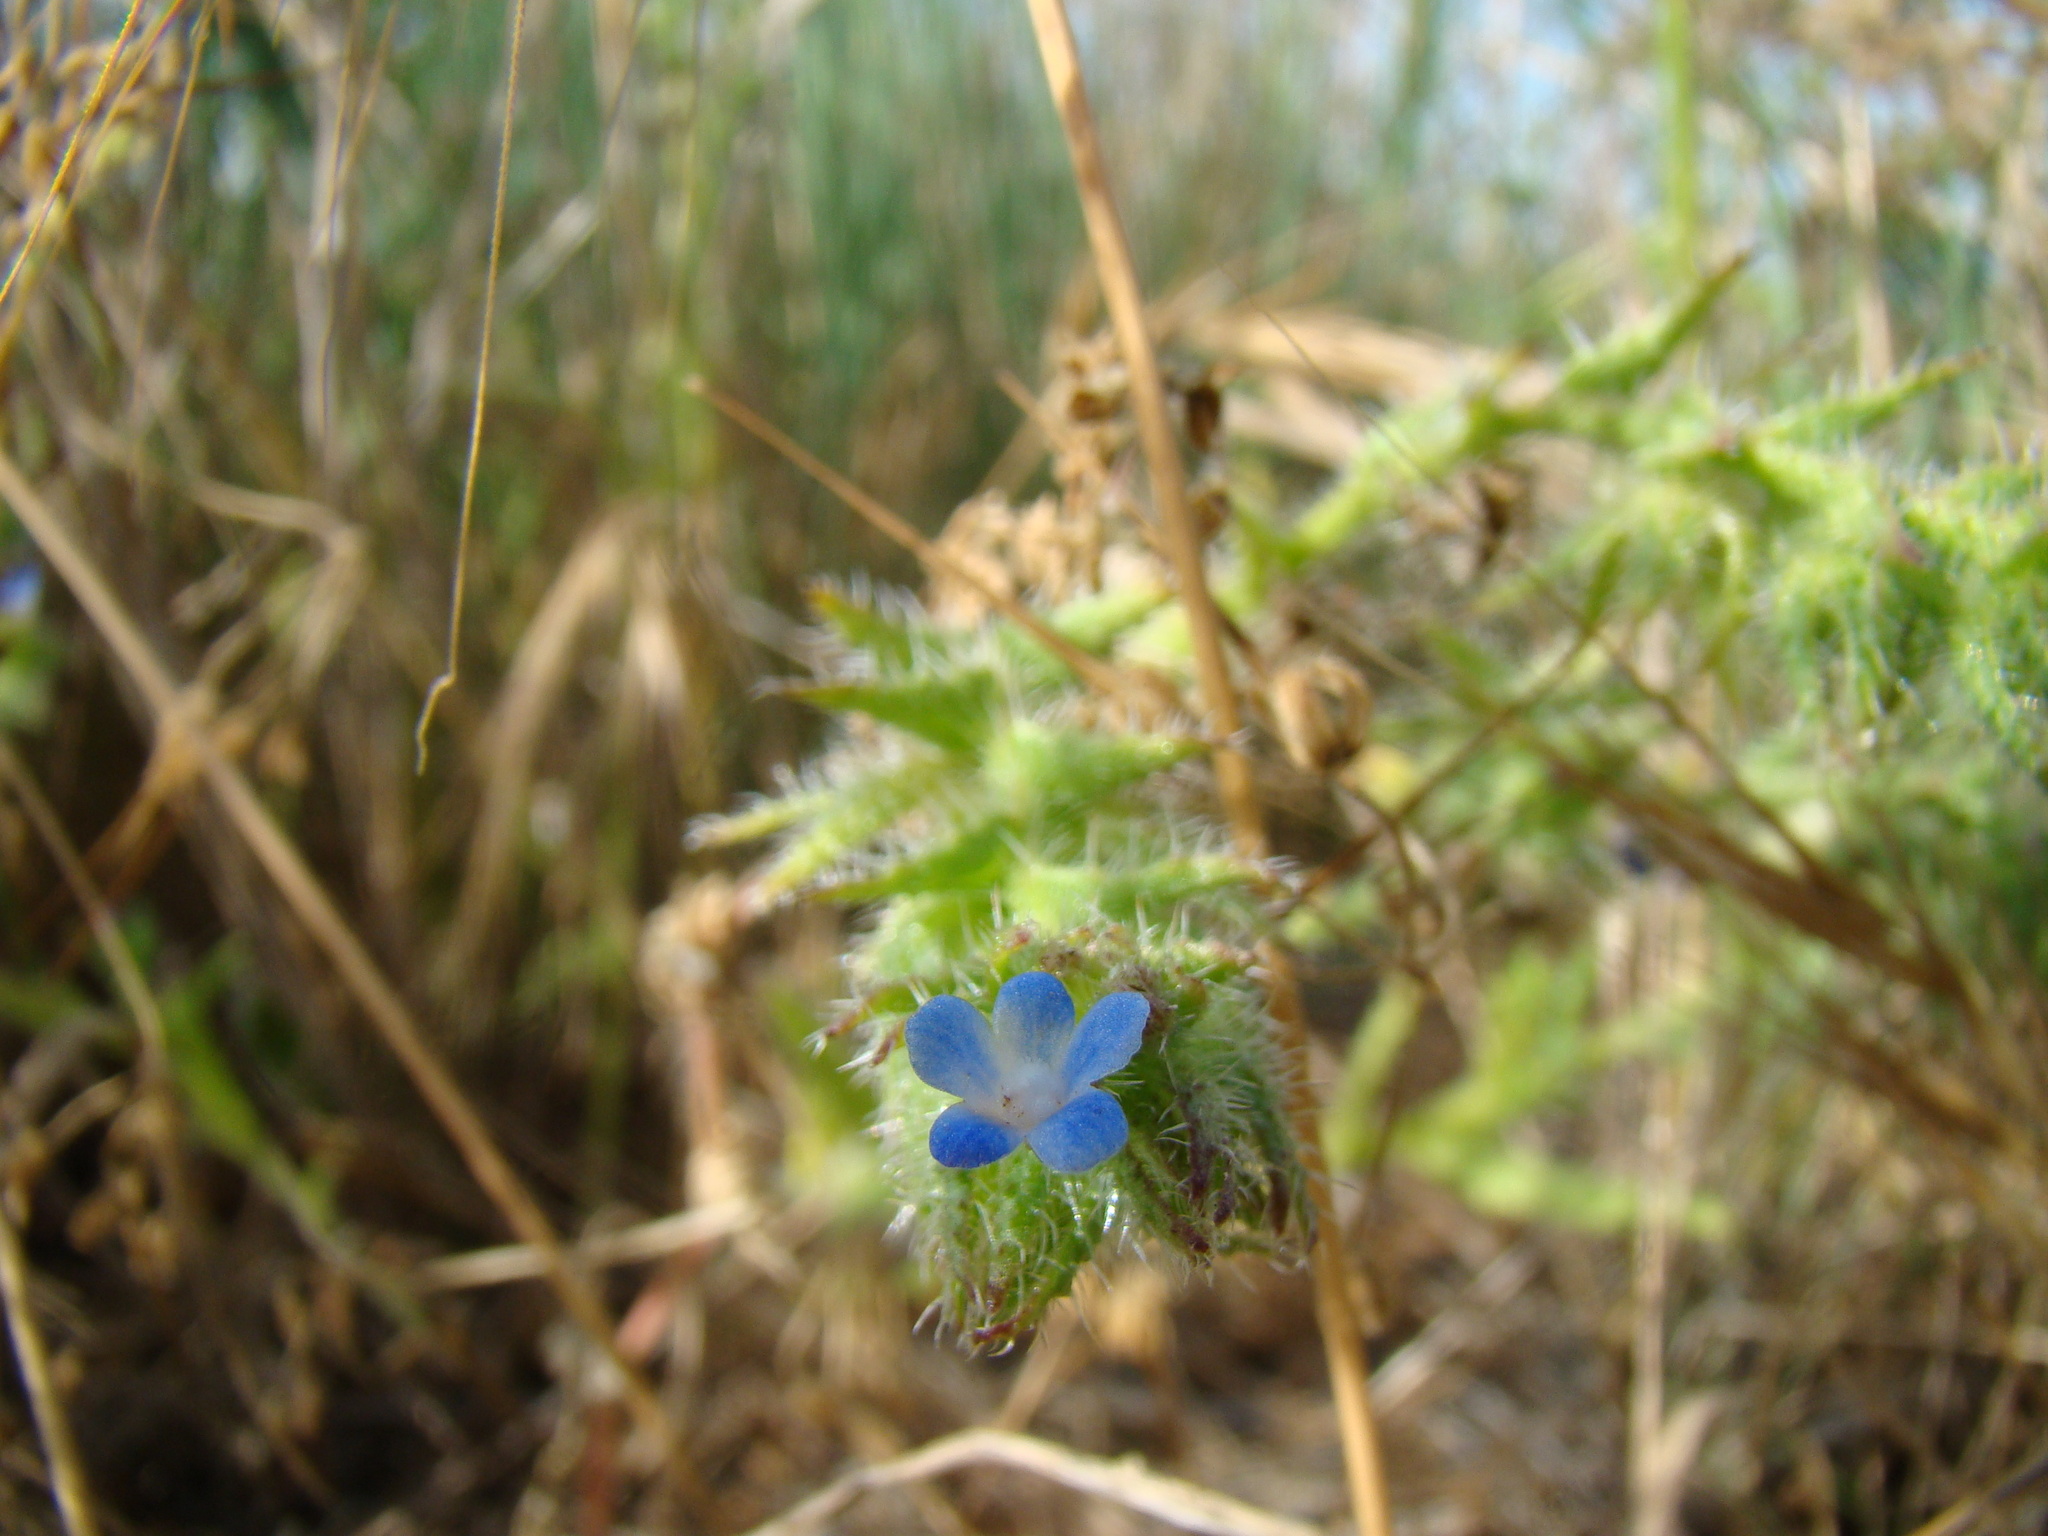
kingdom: Plantae
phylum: Tracheophyta
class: Magnoliopsida
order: Boraginales
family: Boraginaceae
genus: Lycopsis
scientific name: Lycopsis arvensis
